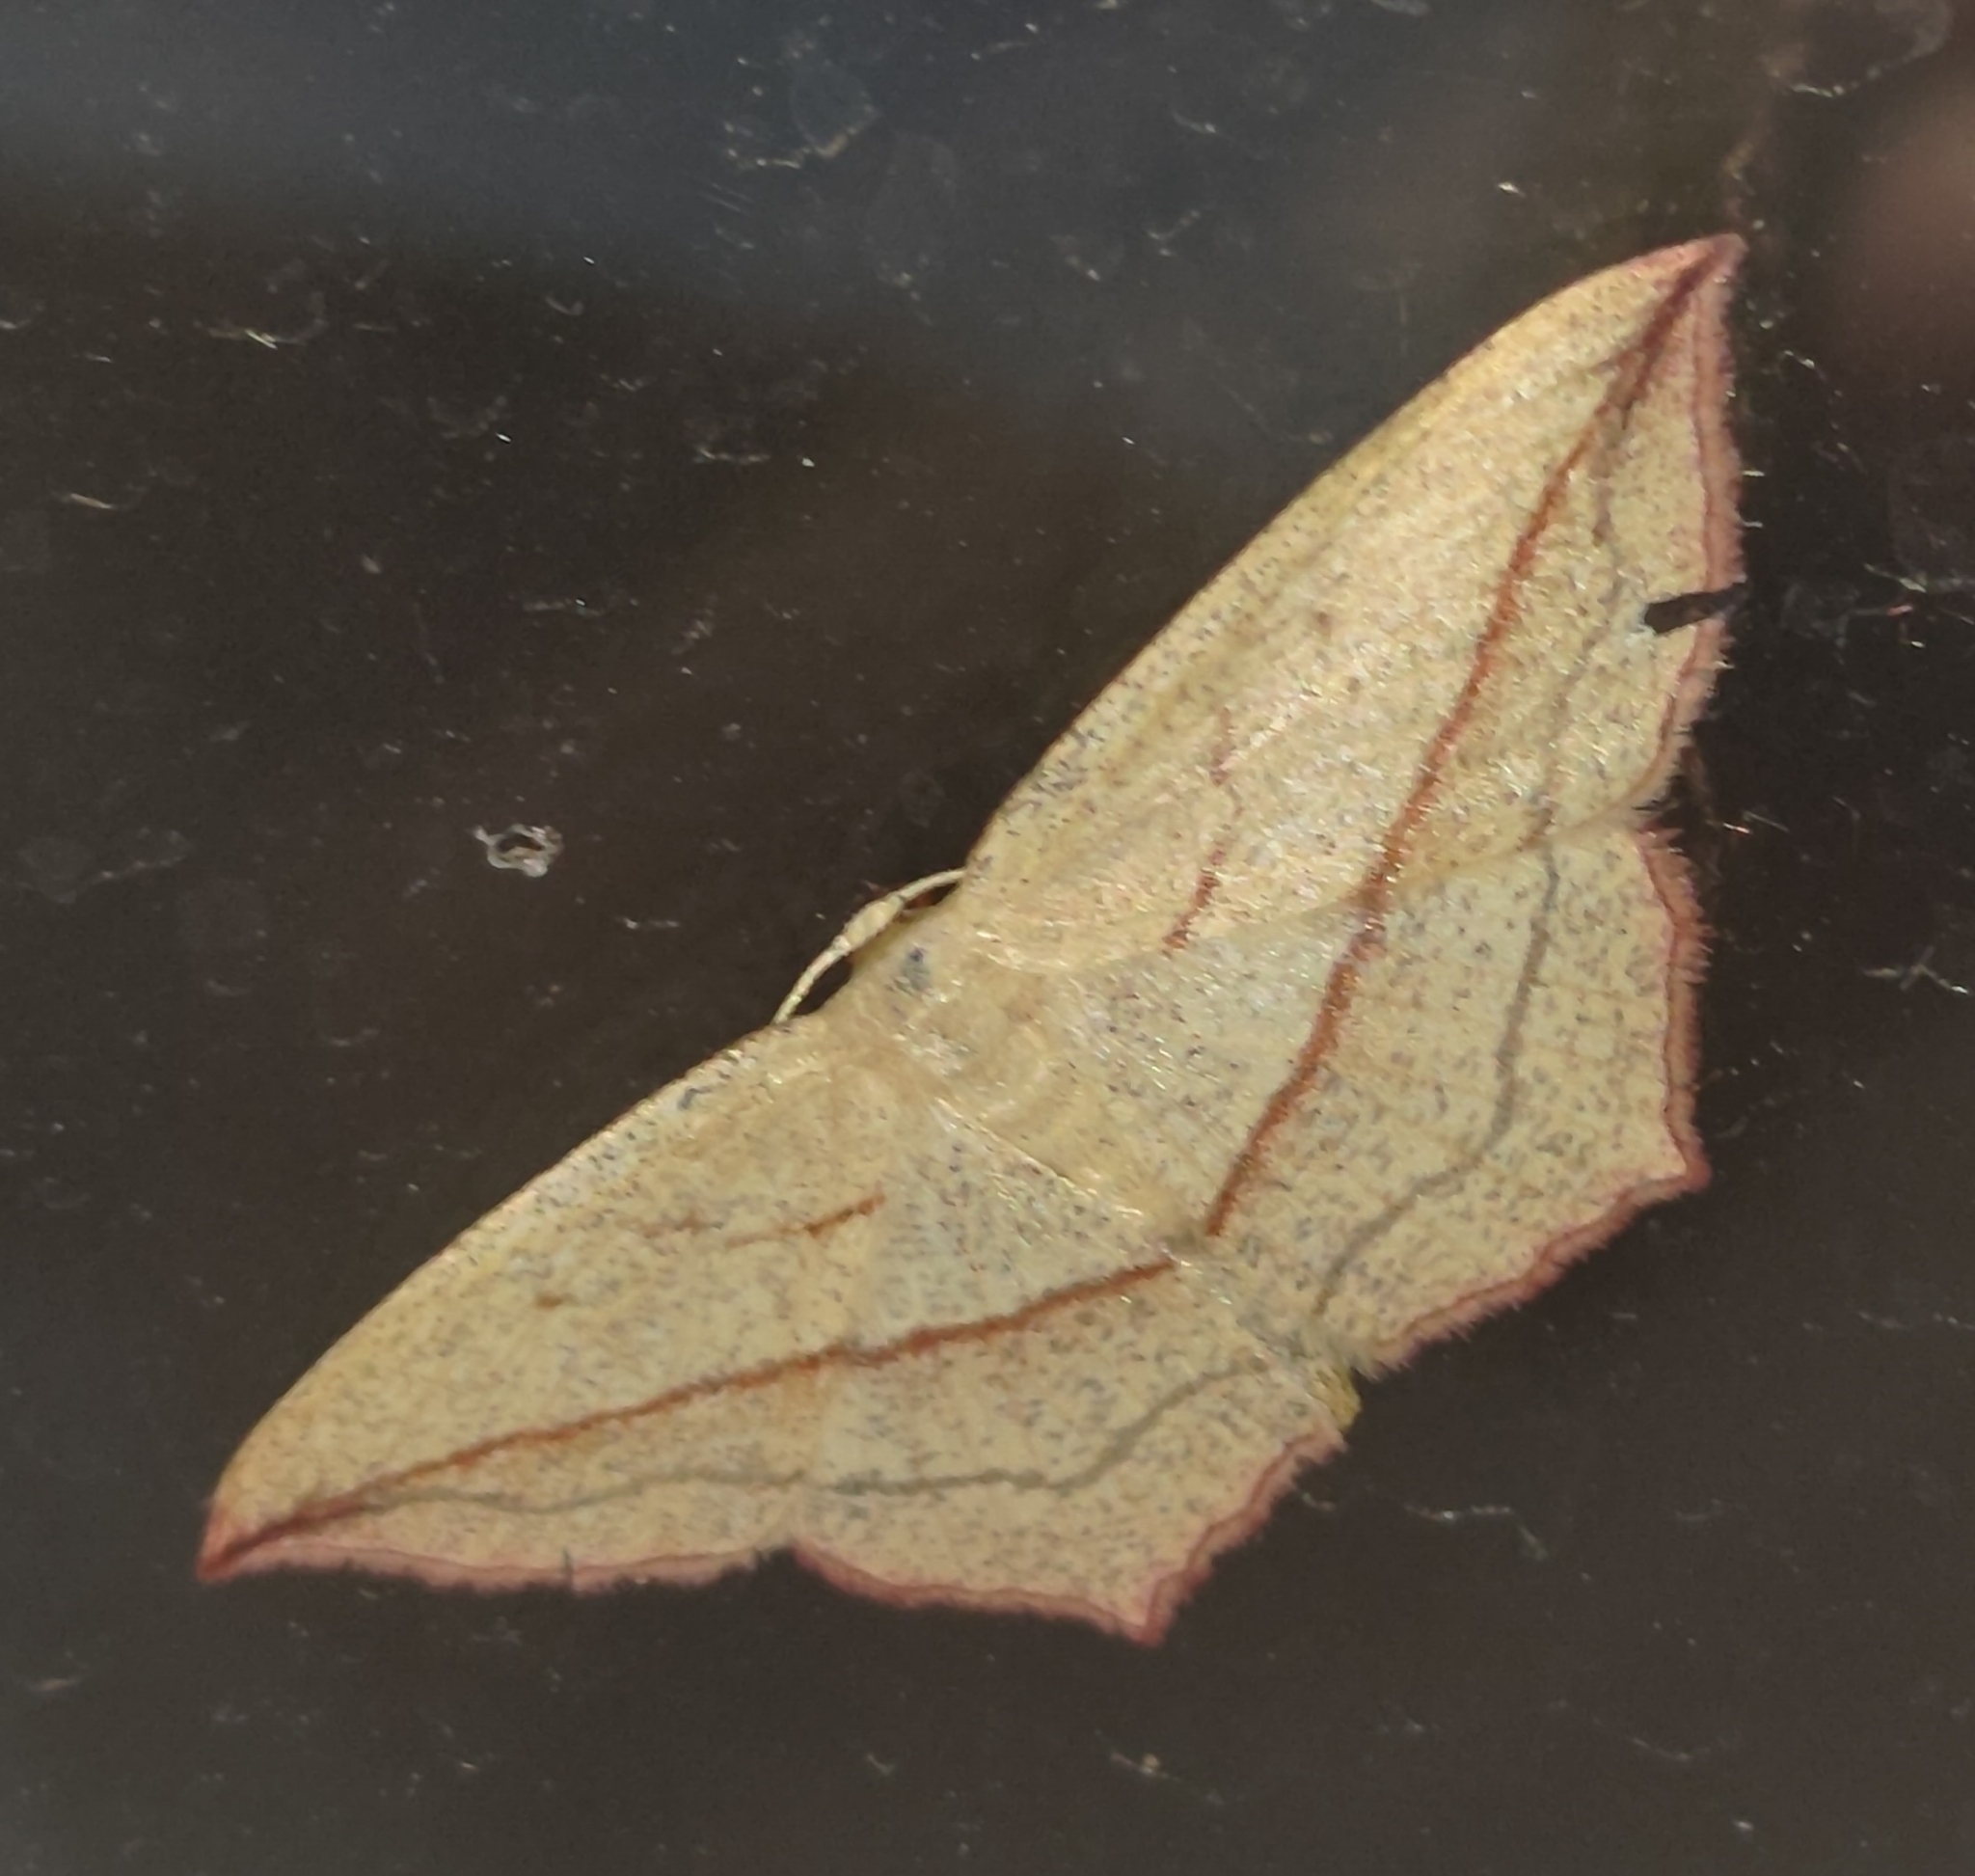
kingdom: Animalia
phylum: Arthropoda
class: Insecta
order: Lepidoptera
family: Geometridae
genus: Timandra
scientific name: Timandra comae
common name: Blood-vein
